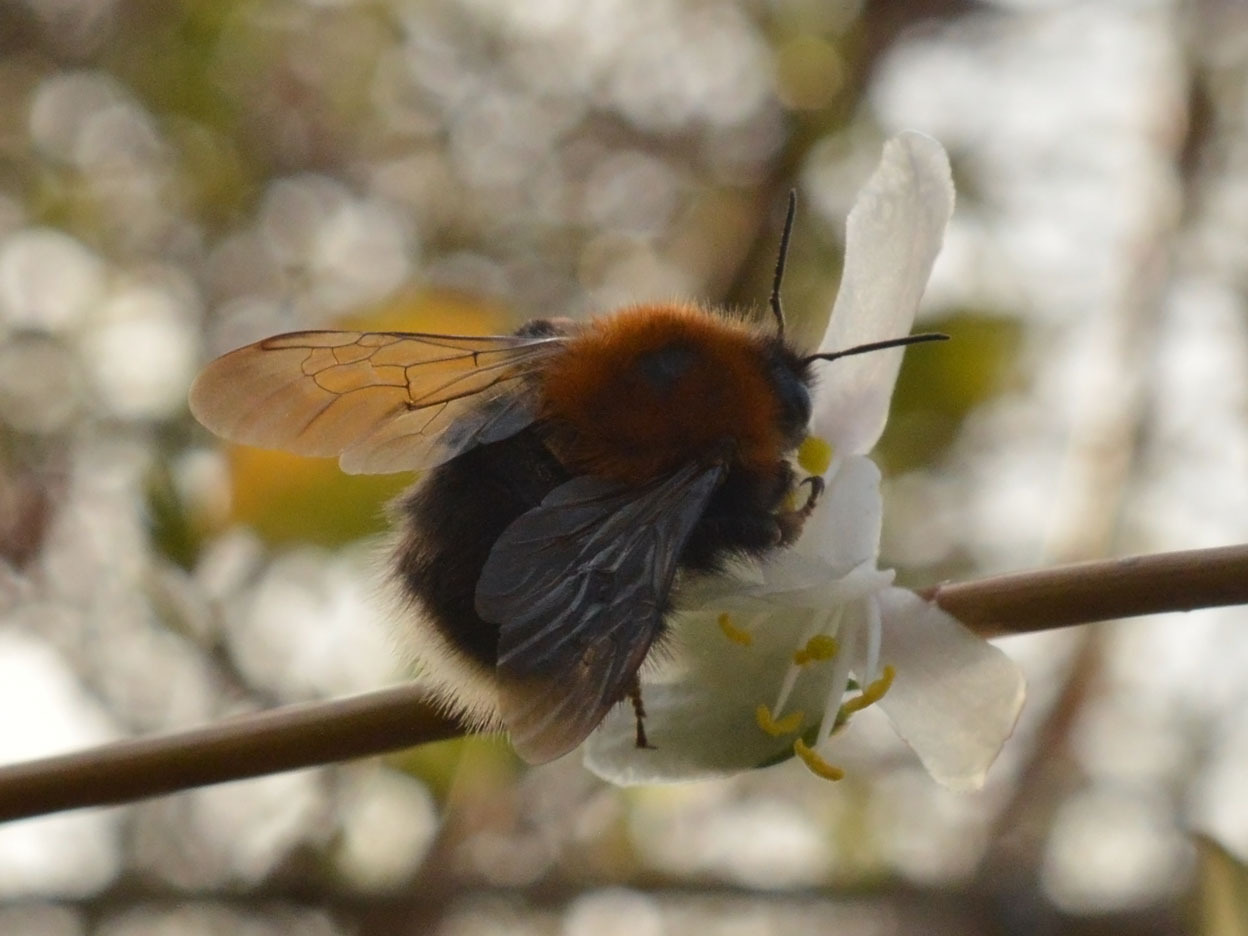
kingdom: Animalia
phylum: Arthropoda
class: Insecta
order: Hymenoptera
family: Apidae
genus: Bombus
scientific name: Bombus hypnorum
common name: New garden bumblebee
